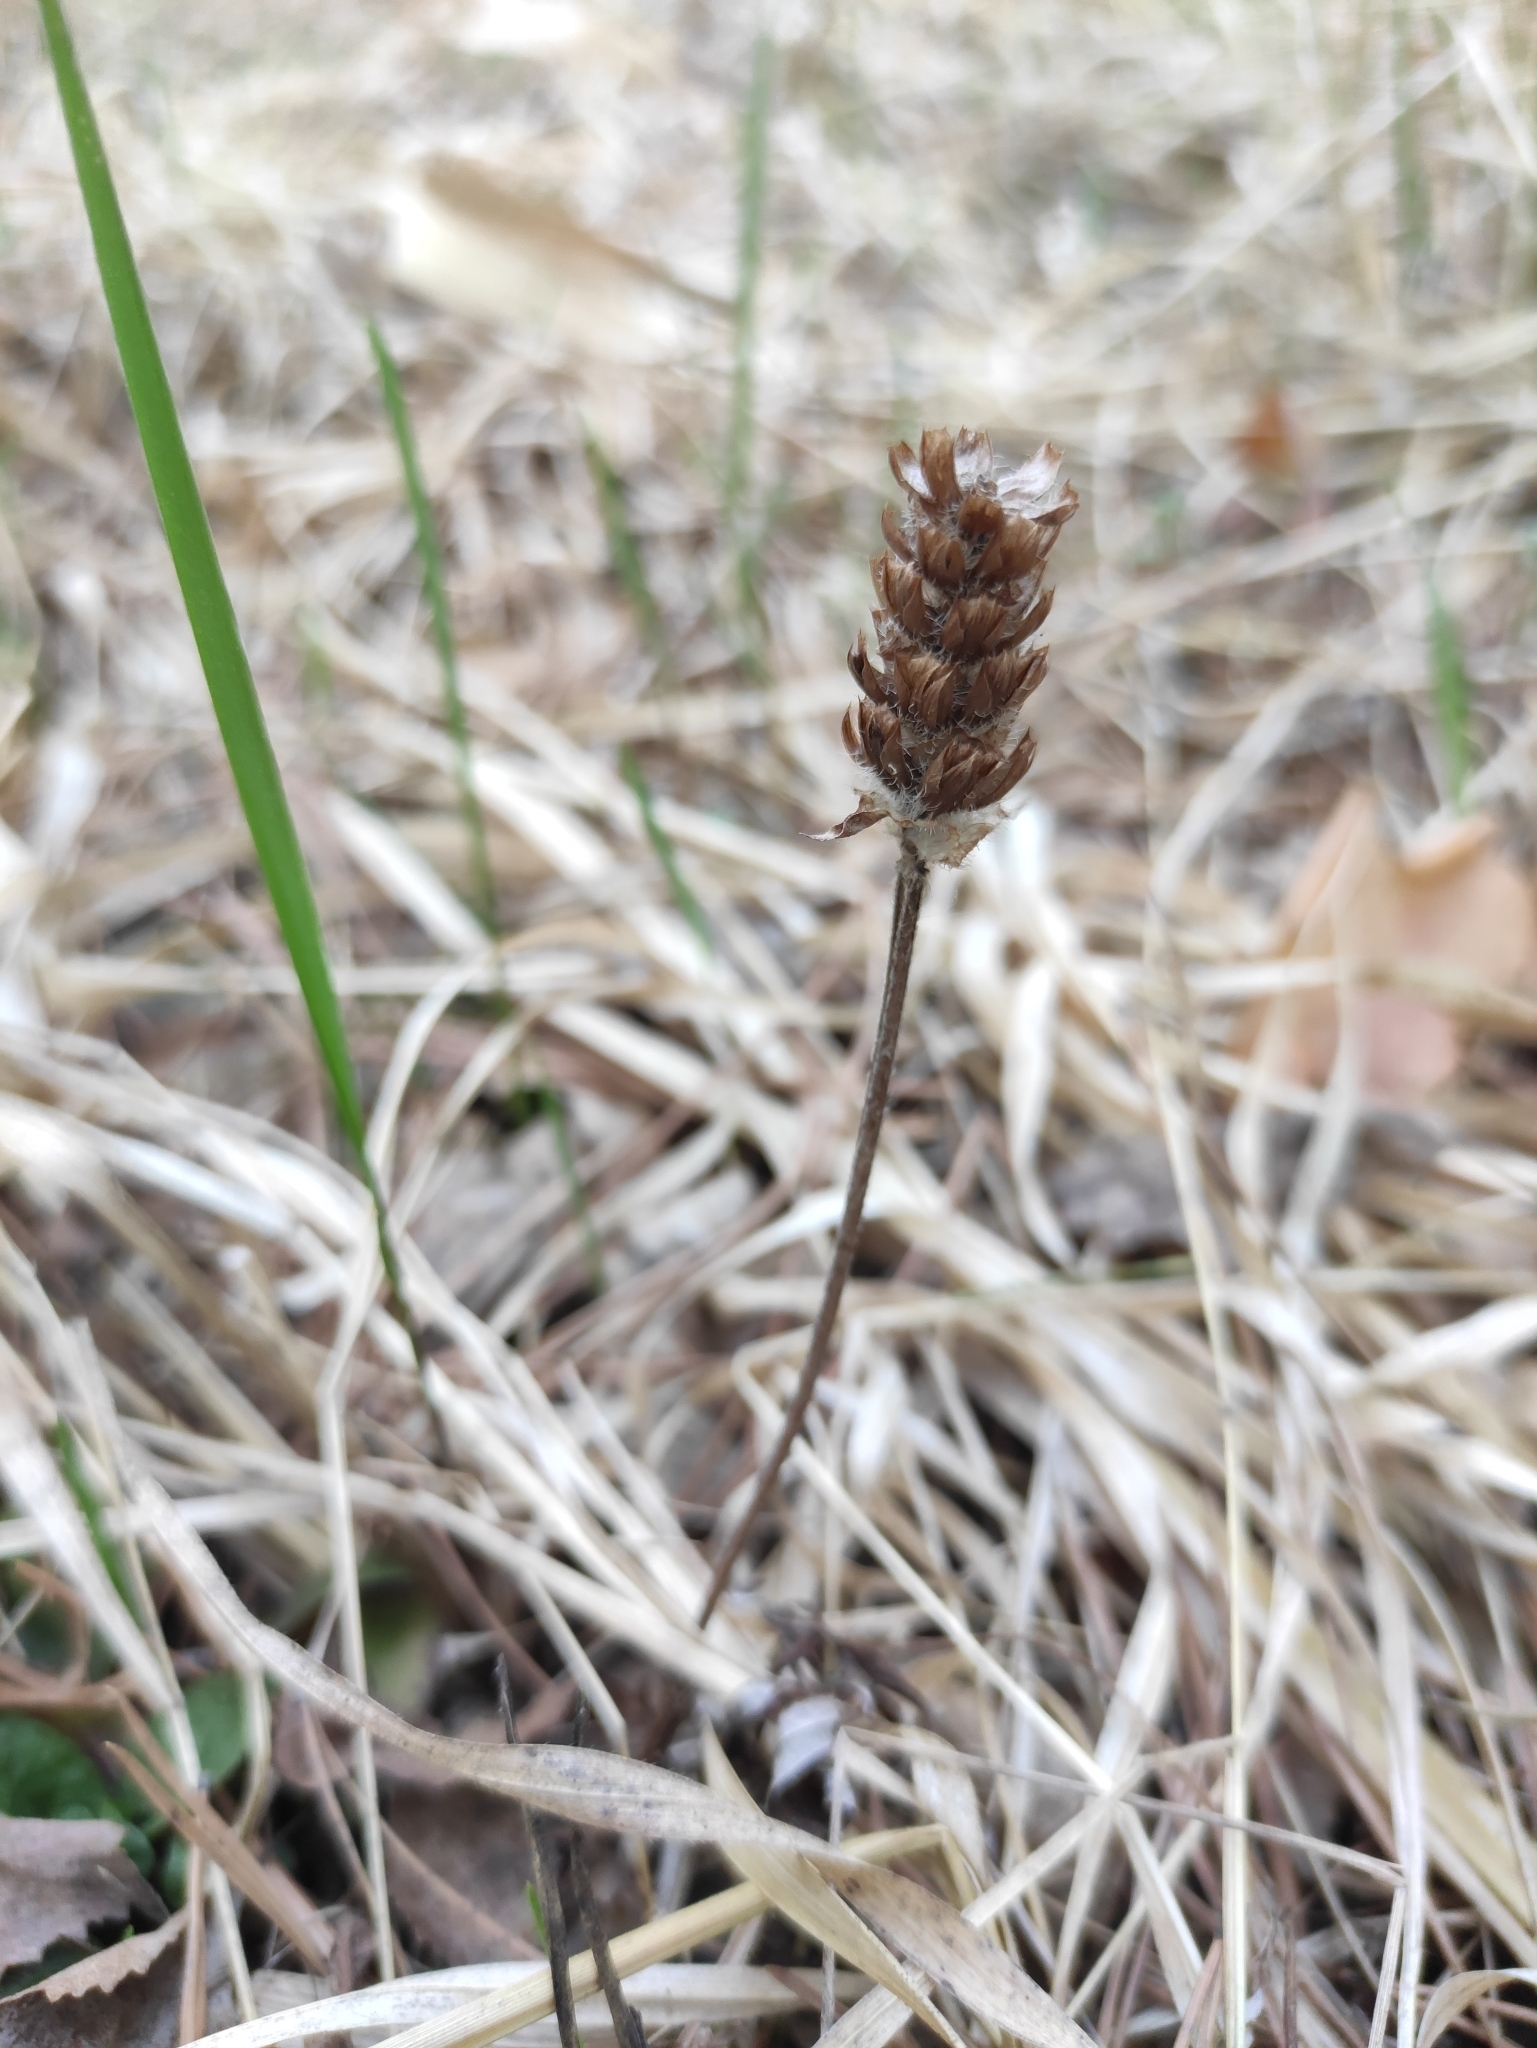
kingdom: Plantae
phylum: Tracheophyta
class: Magnoliopsida
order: Lamiales
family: Lamiaceae
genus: Prunella
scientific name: Prunella vulgaris
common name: Heal-all
